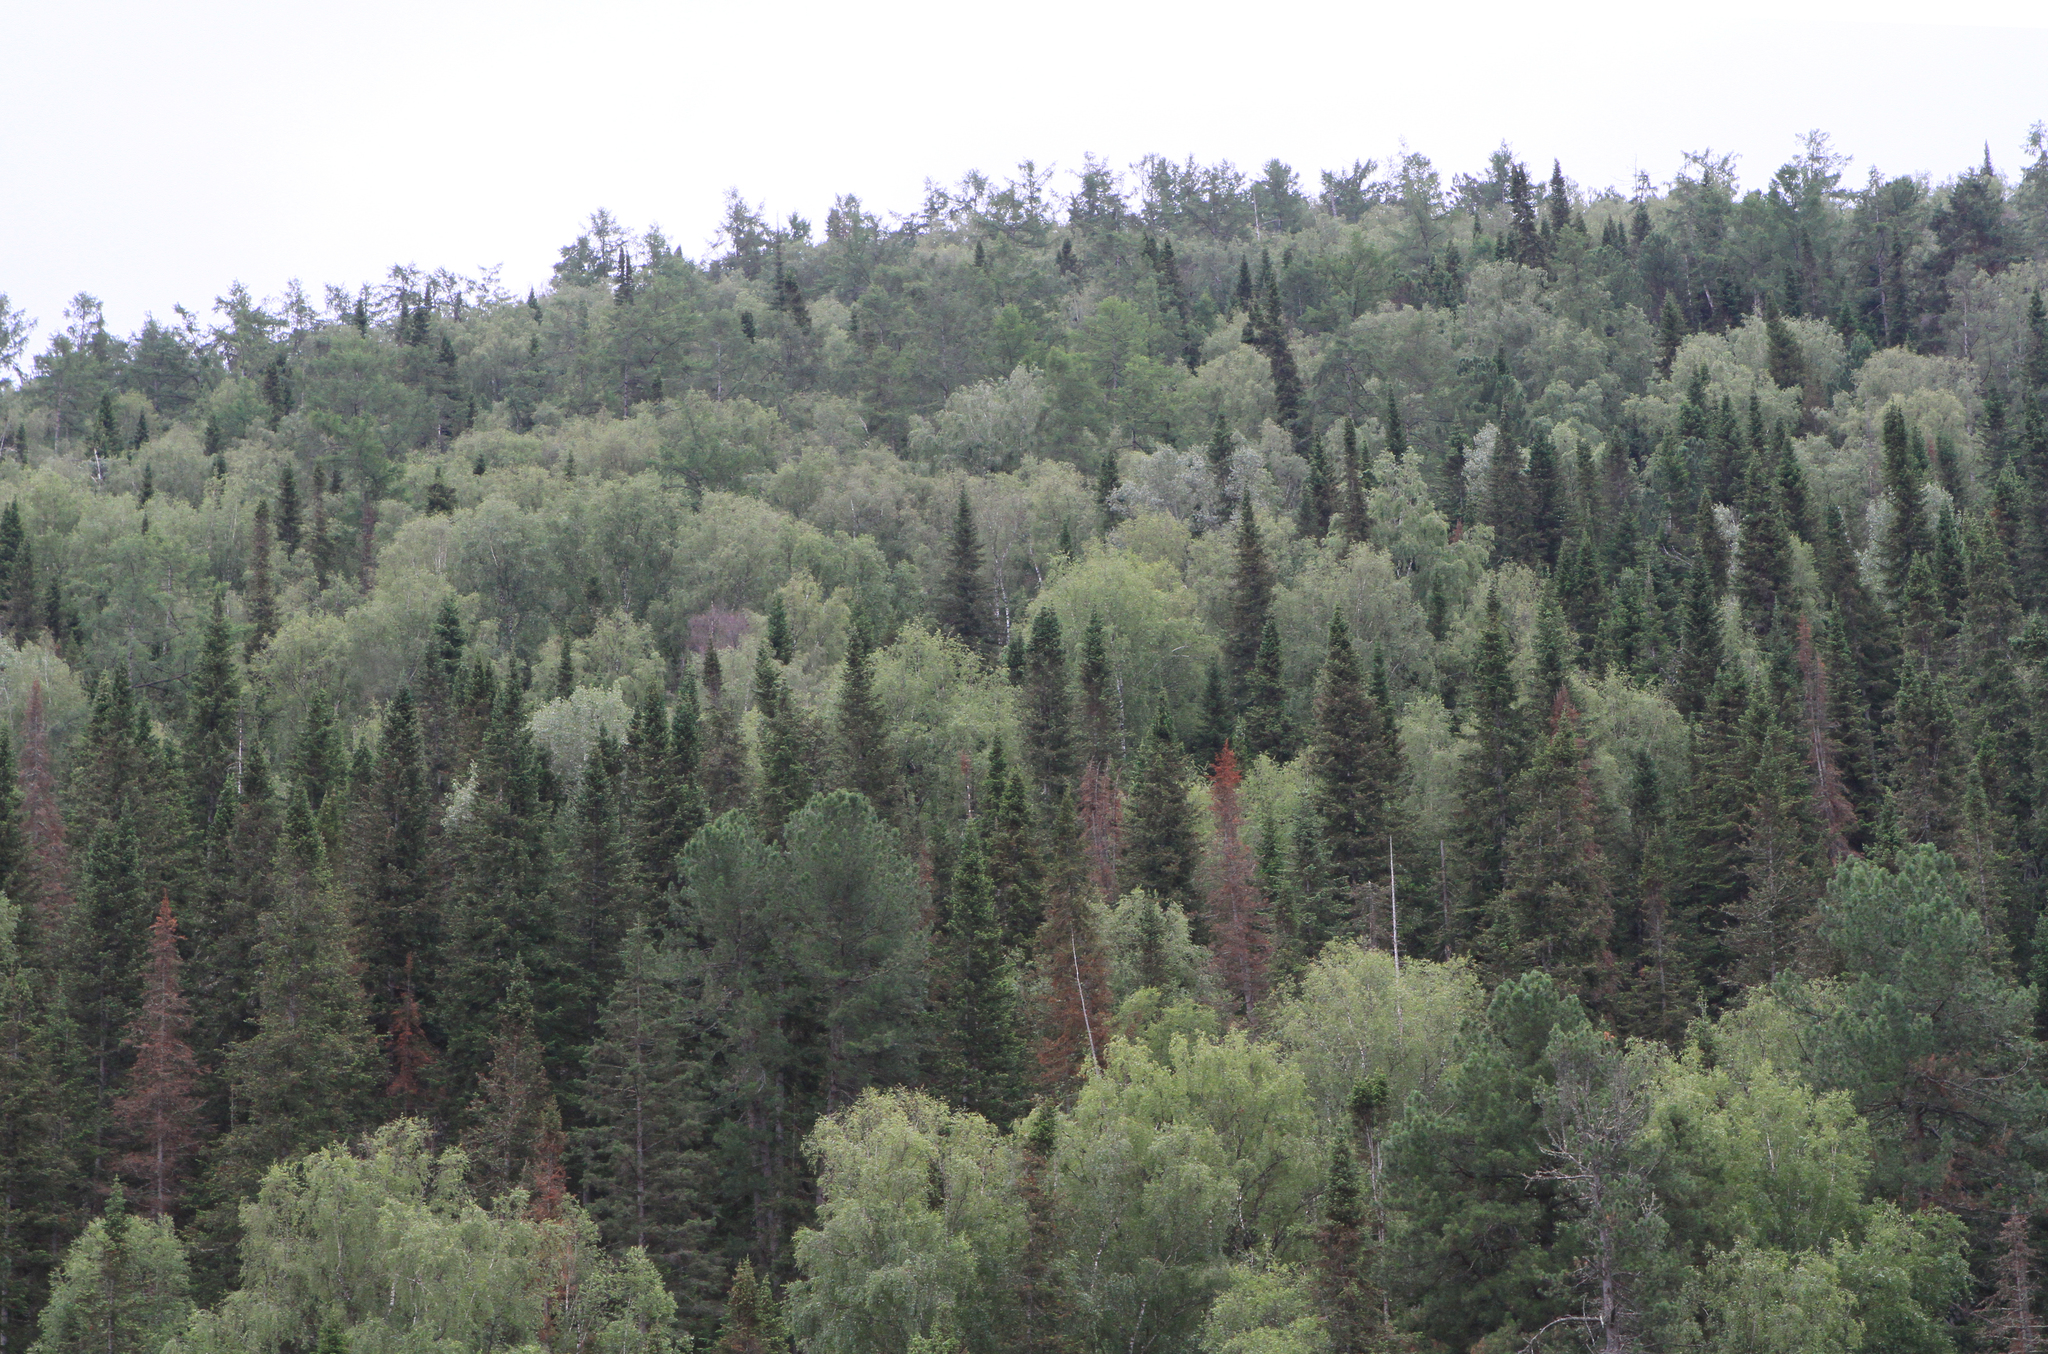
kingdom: Plantae
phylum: Tracheophyta
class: Pinopsida
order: Pinales
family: Pinaceae
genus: Abies
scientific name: Abies sibirica
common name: Siberian fir
